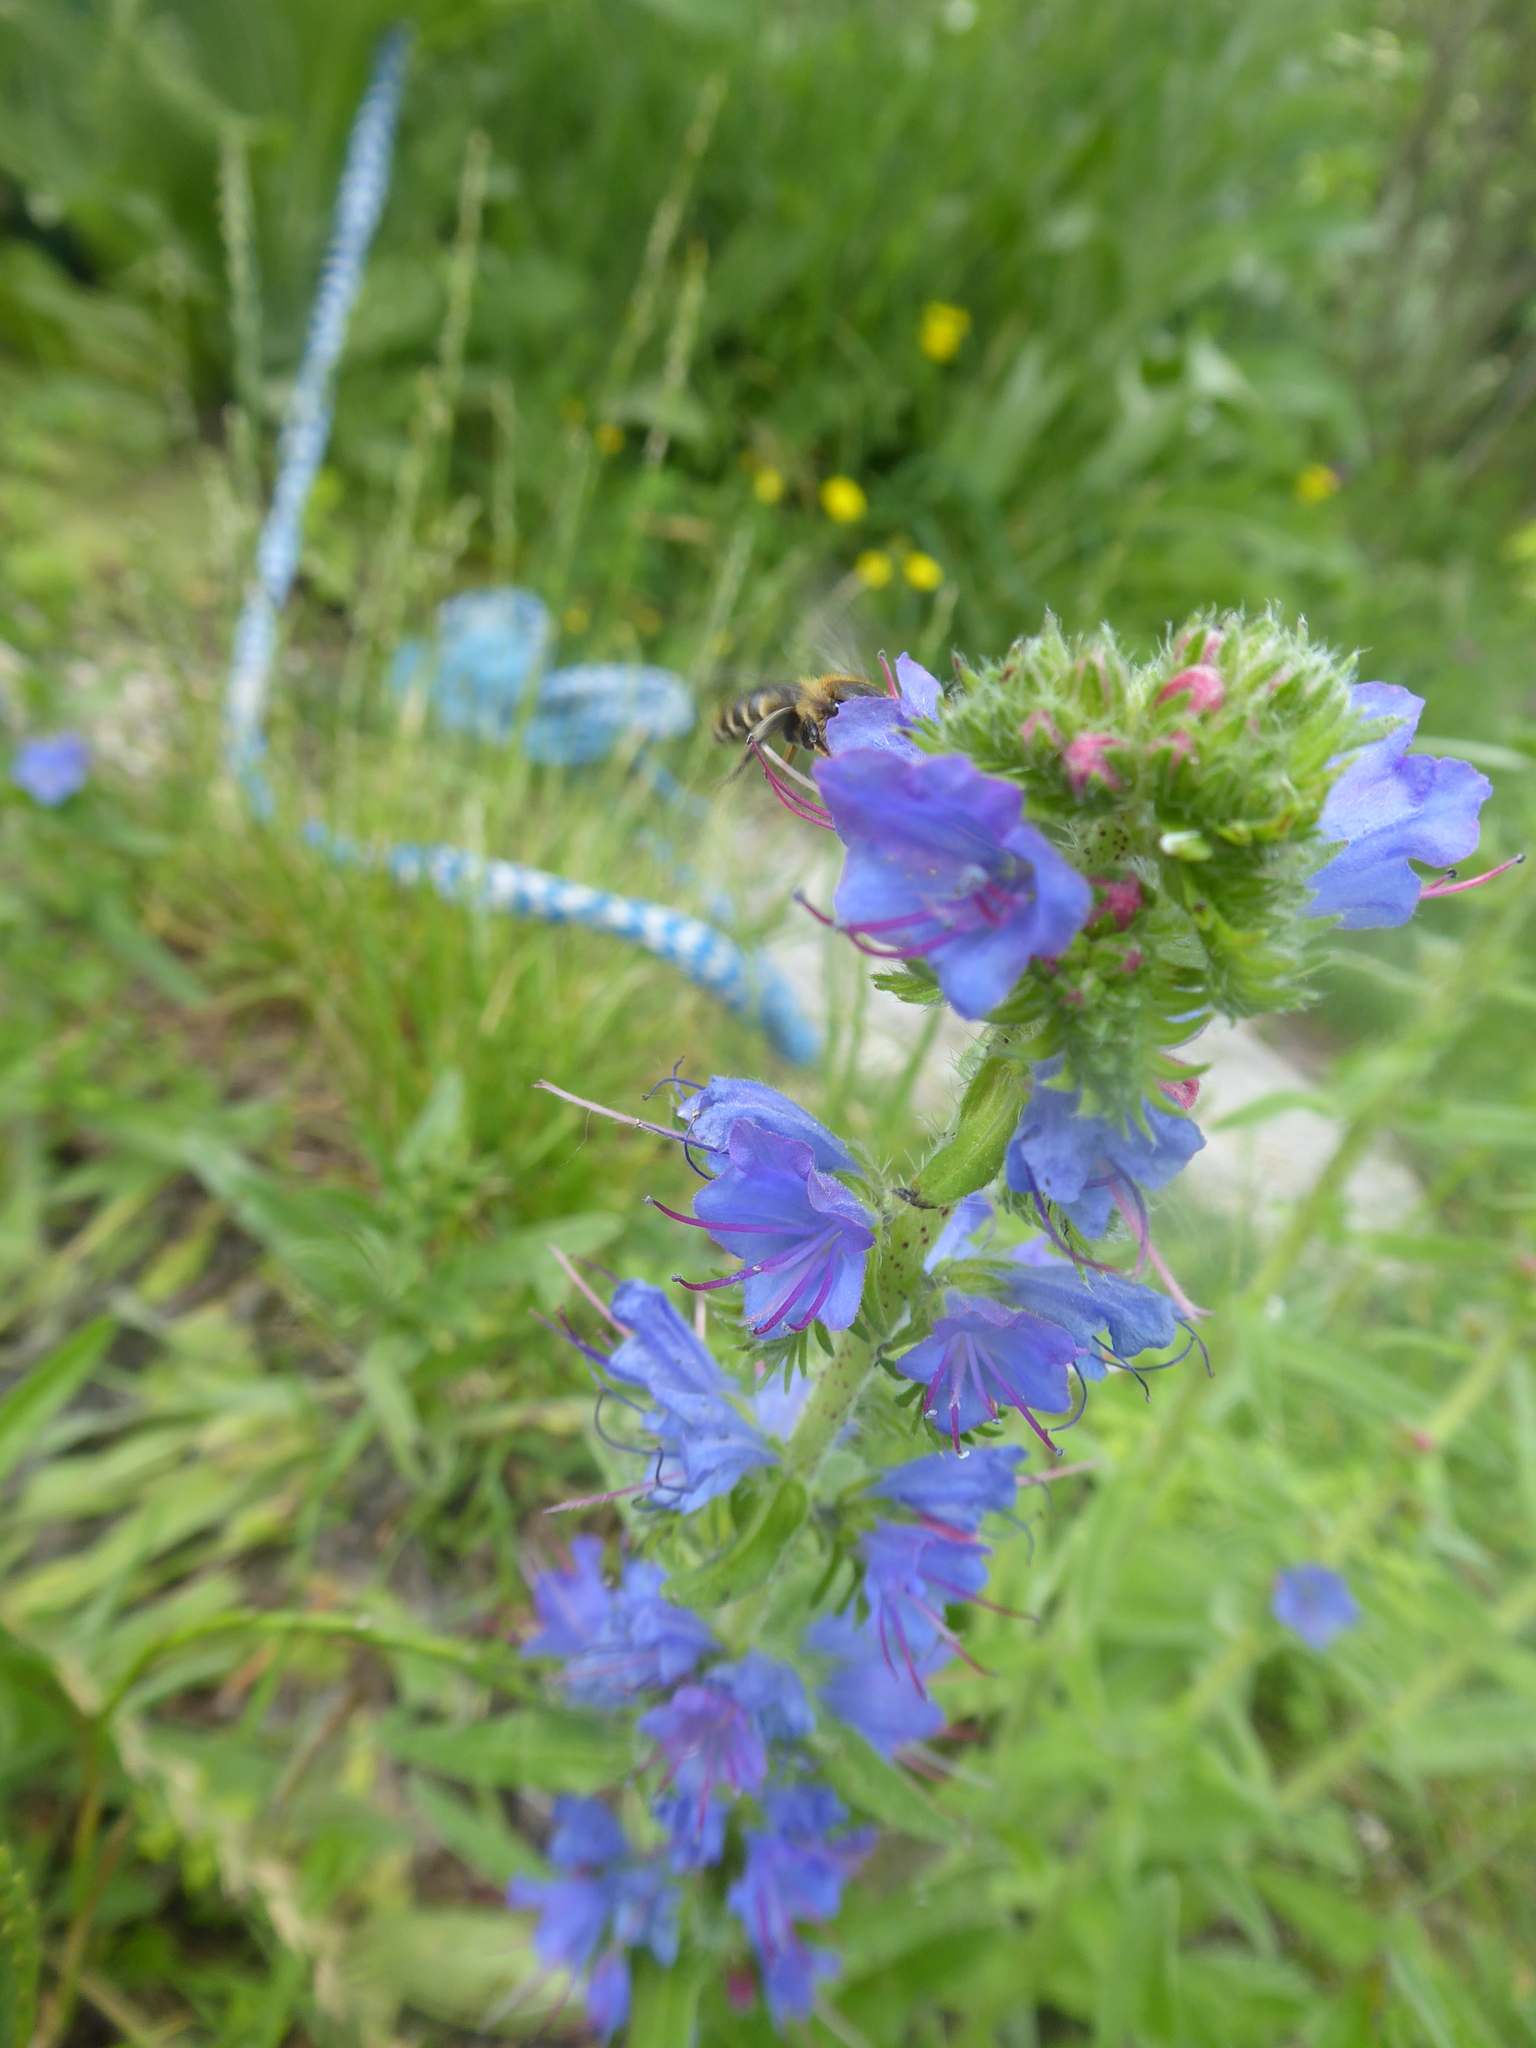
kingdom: Plantae
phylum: Tracheophyta
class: Magnoliopsida
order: Boraginales
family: Boraginaceae
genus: Echium
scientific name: Echium vulgare
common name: Common viper's bugloss
